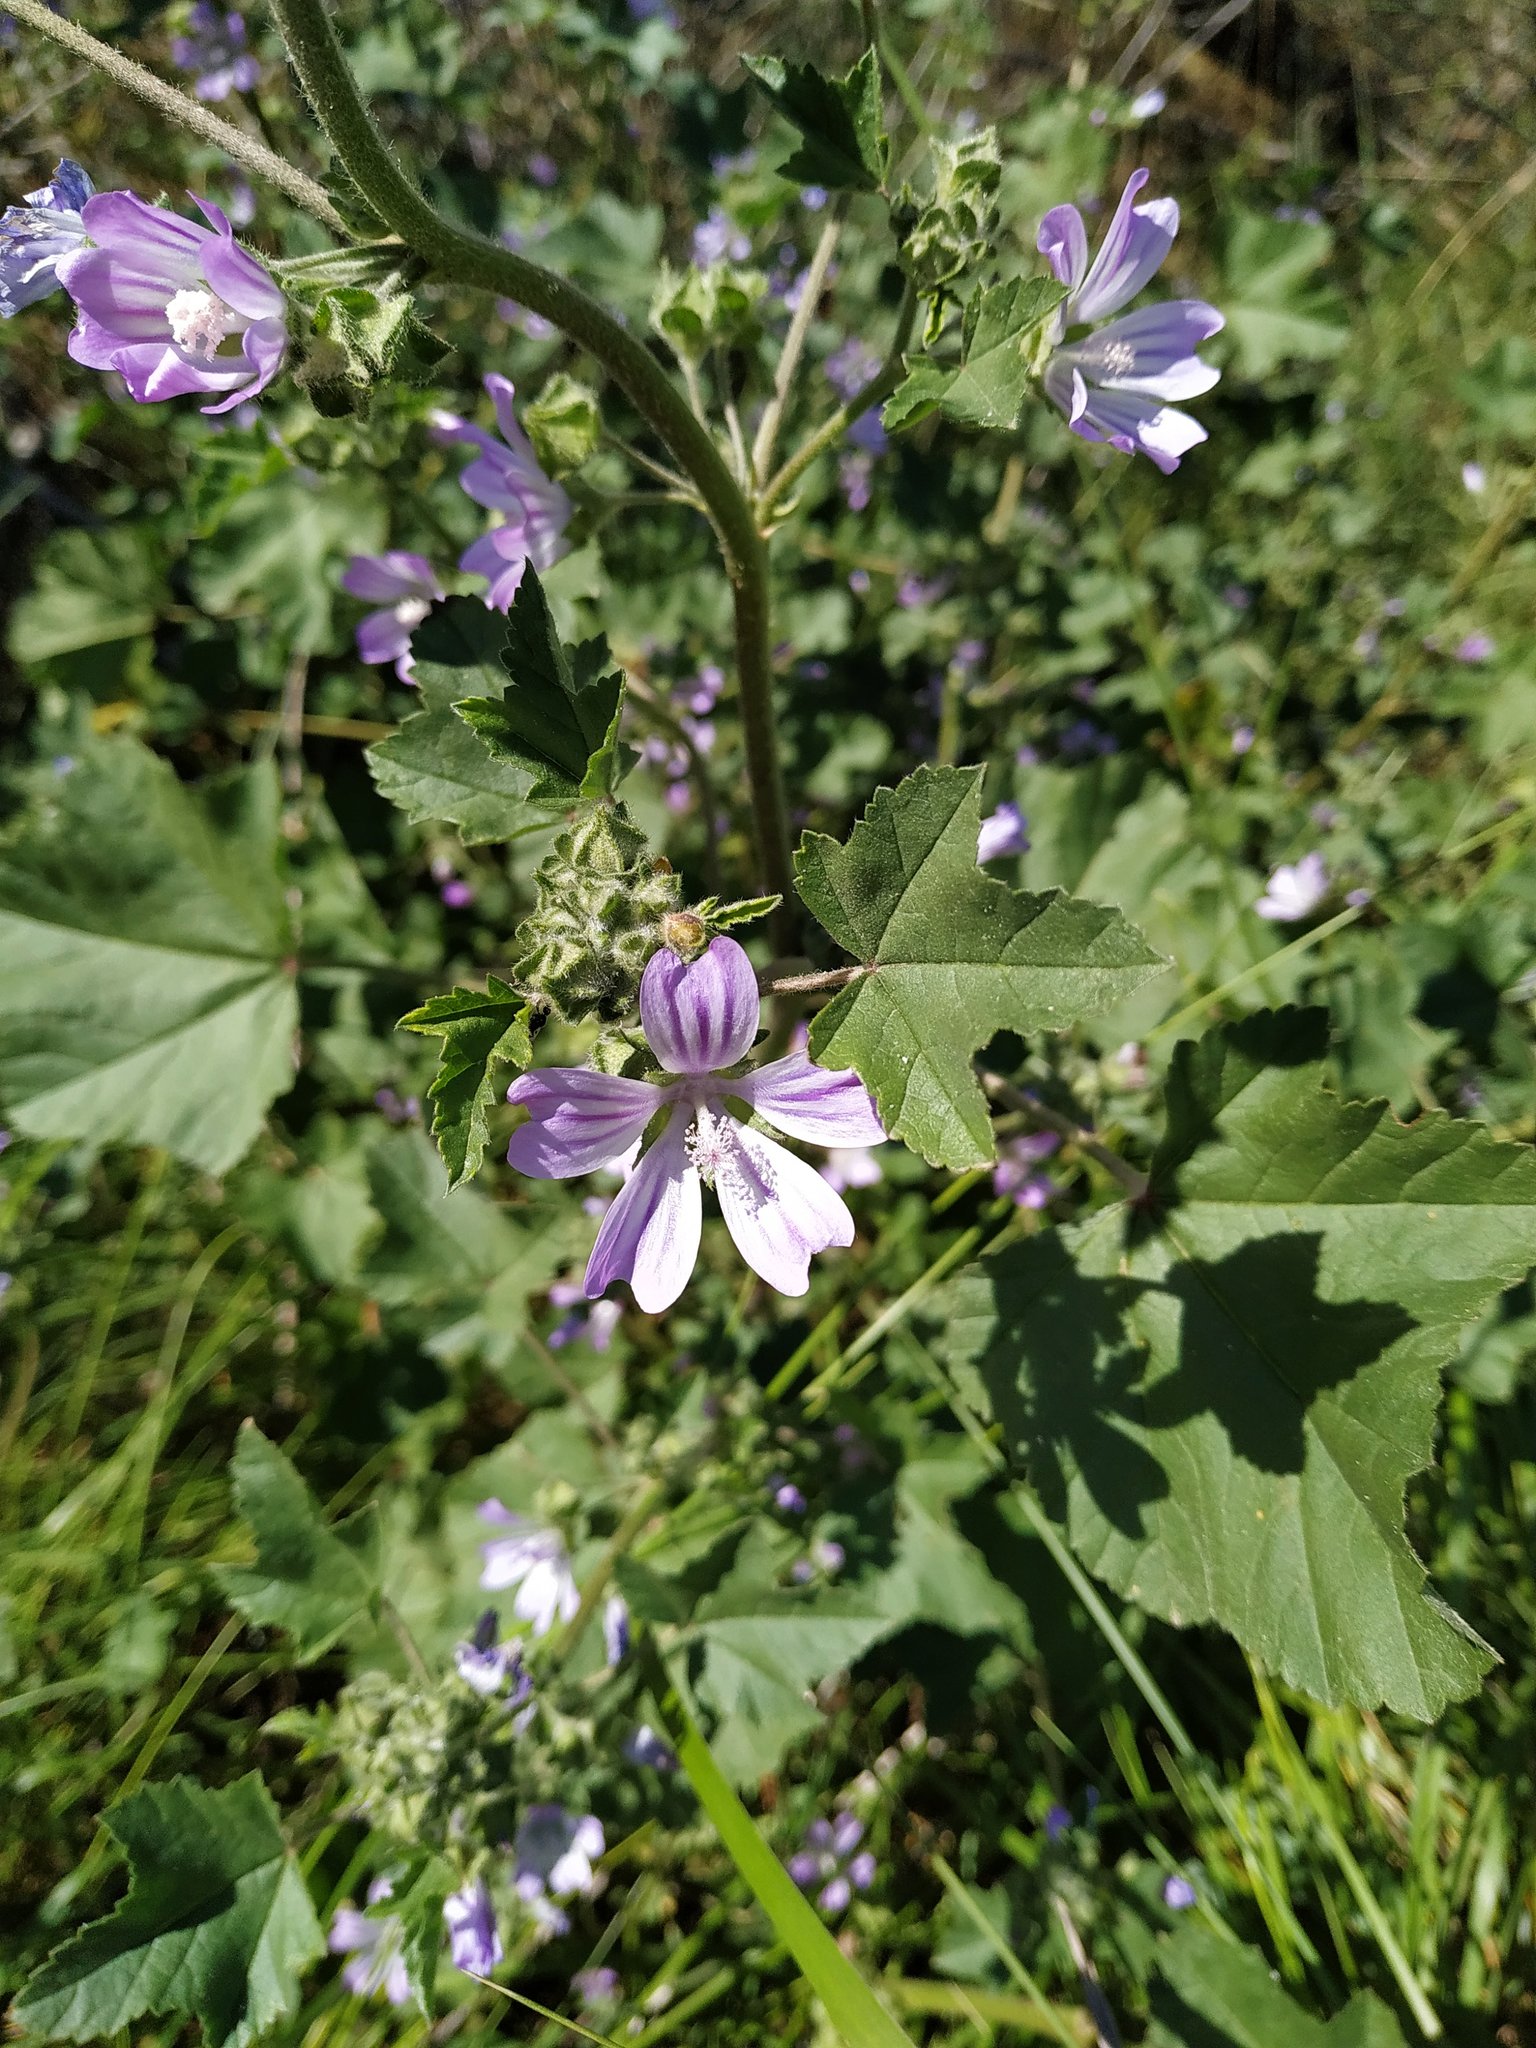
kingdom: Plantae
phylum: Tracheophyta
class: Magnoliopsida
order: Malvales
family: Malvaceae
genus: Malva
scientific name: Malva sylvestris
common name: Common mallow
